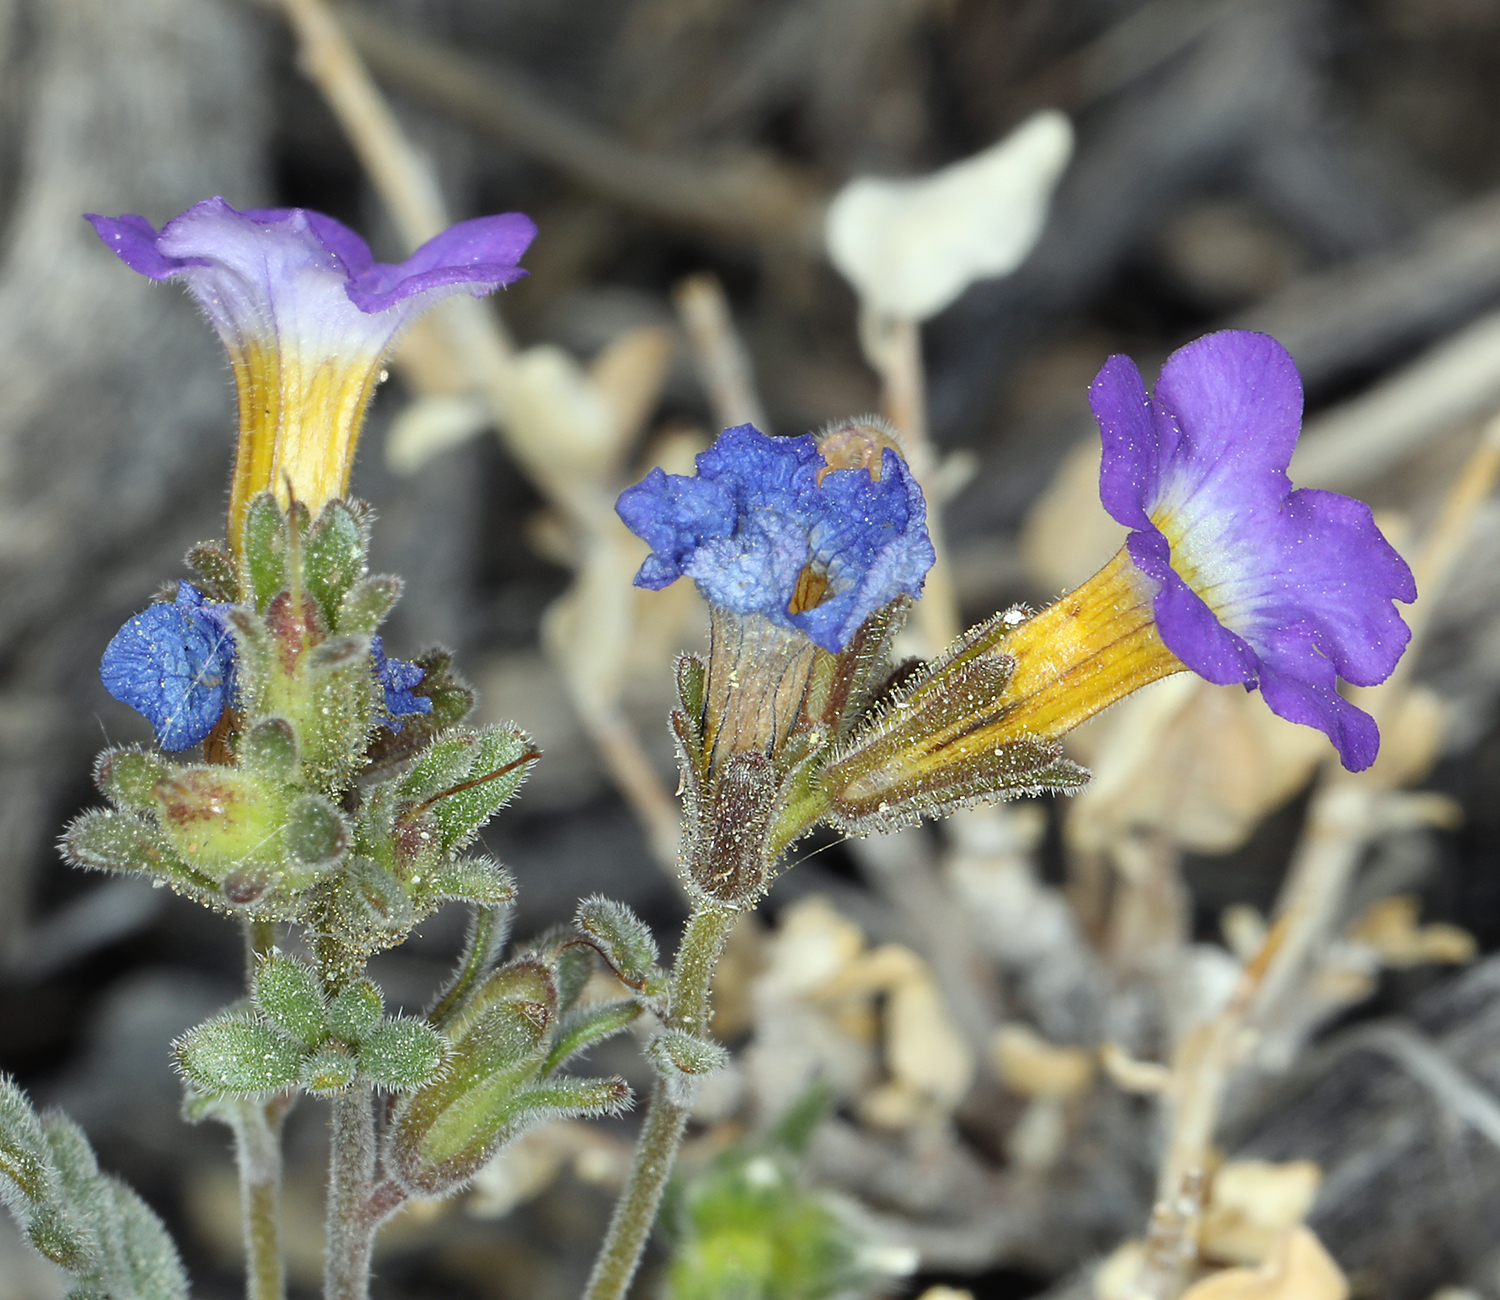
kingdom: Plantae
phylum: Tracheophyta
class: Magnoliopsida
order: Boraginales
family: Hydrophyllaceae
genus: Phacelia
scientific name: Phacelia fremontii
